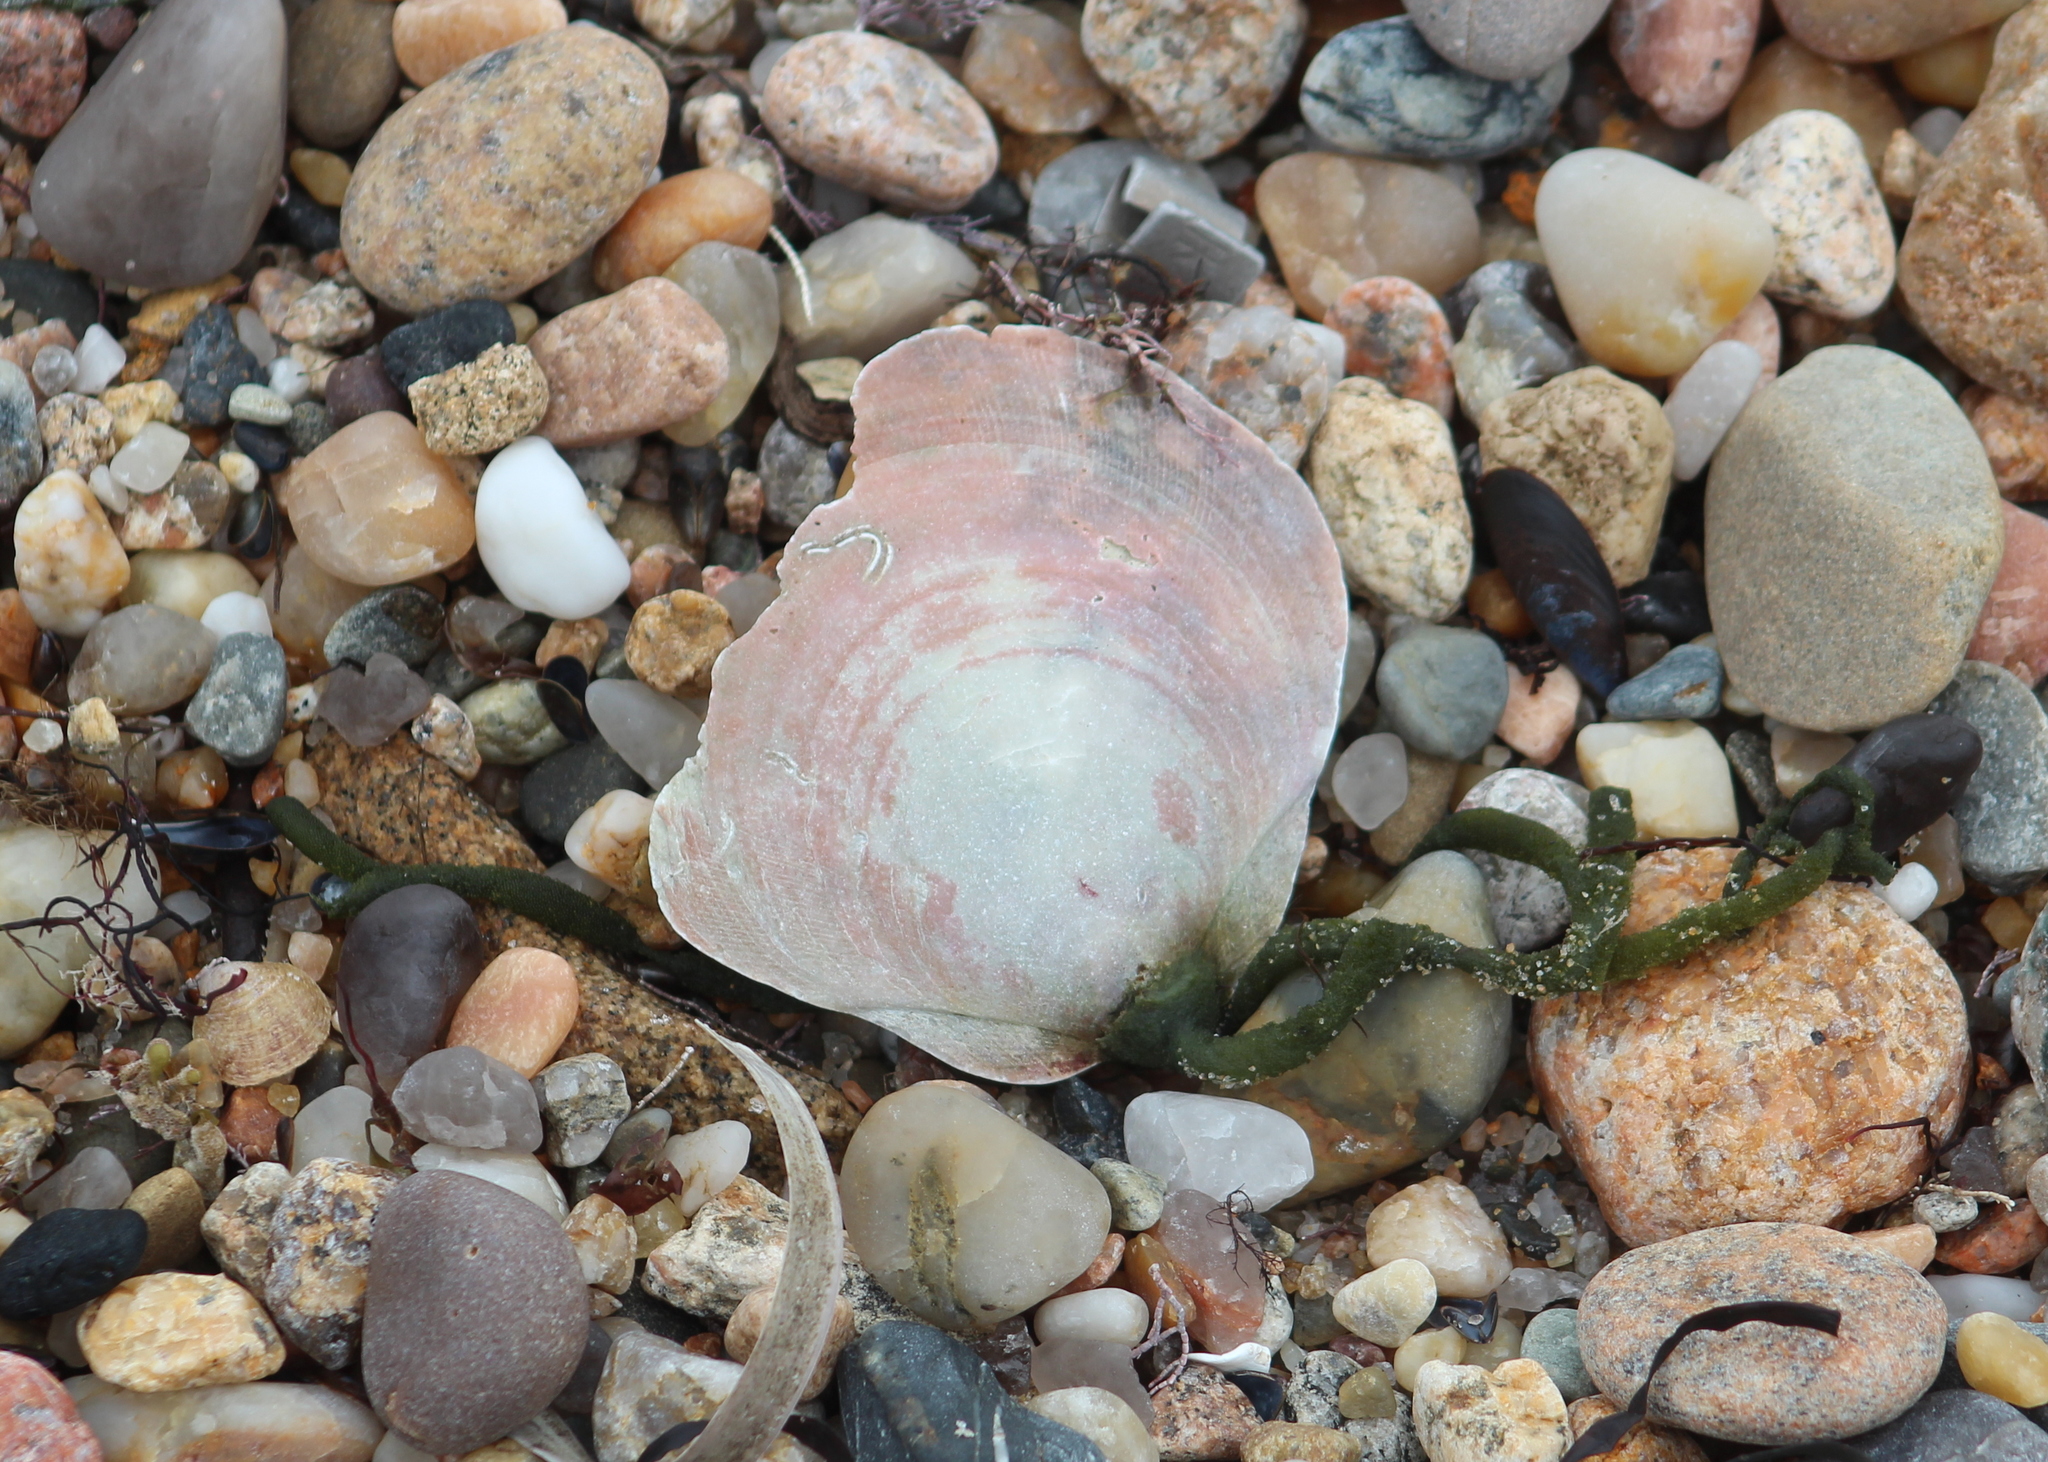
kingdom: Animalia
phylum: Mollusca
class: Bivalvia
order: Pectinida
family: Pectinidae
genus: Placopecten
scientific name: Placopecten magellanicus
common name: American sea scallop
